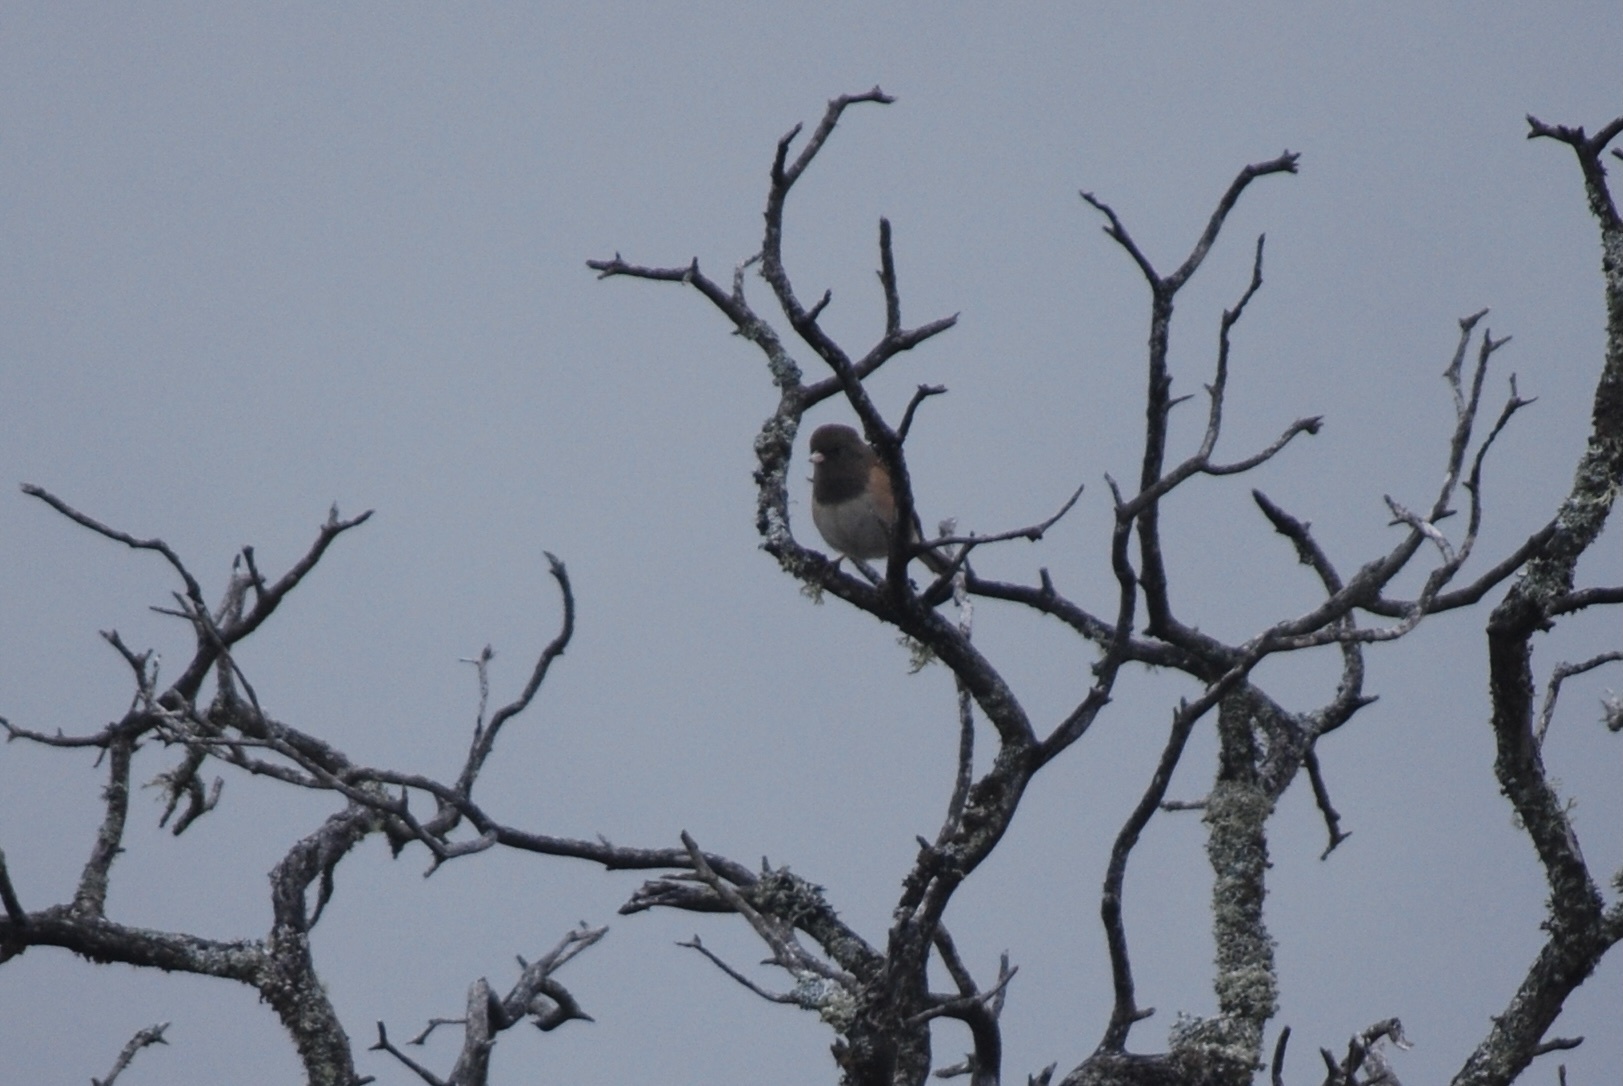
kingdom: Animalia
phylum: Chordata
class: Aves
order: Passeriformes
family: Passerellidae
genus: Junco
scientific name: Junco hyemalis
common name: Dark-eyed junco
